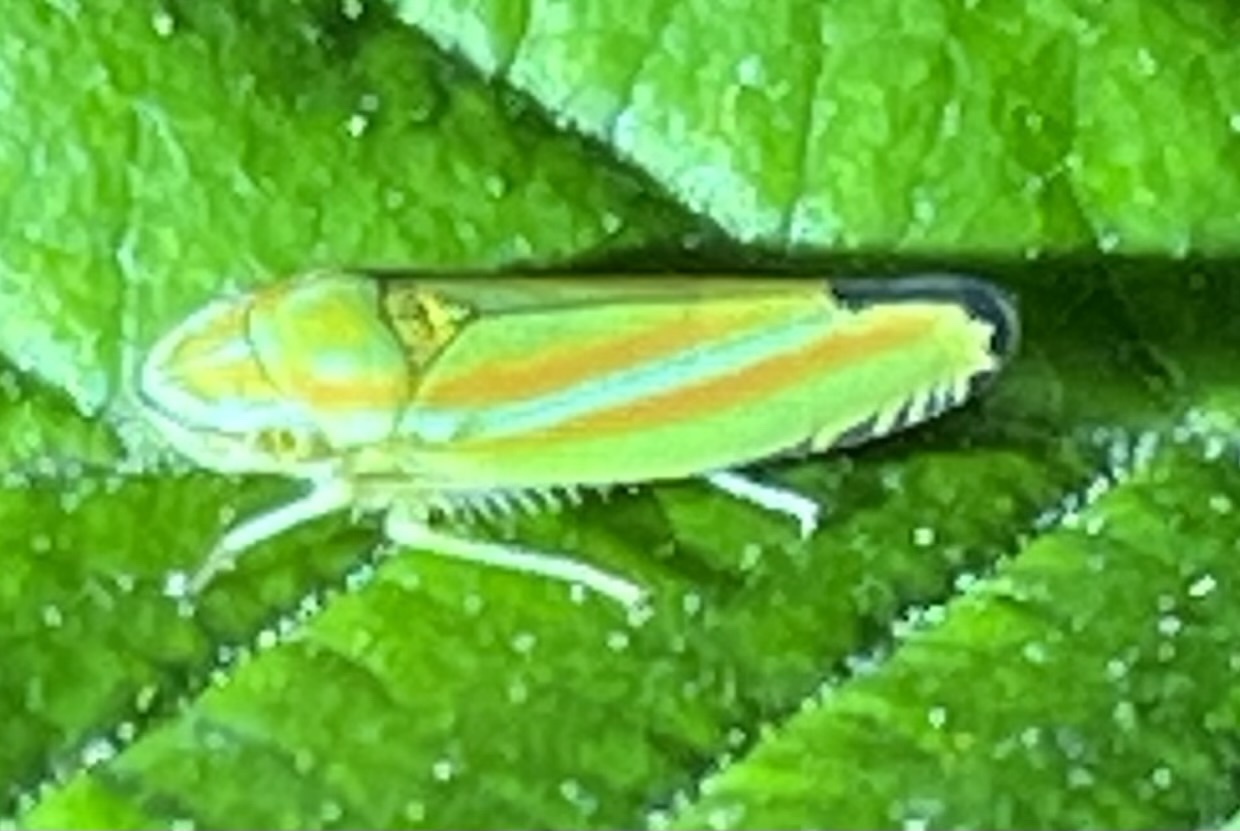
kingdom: Animalia
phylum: Arthropoda
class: Insecta
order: Hemiptera
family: Cicadellidae
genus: Graphocephala
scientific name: Graphocephala versuta
